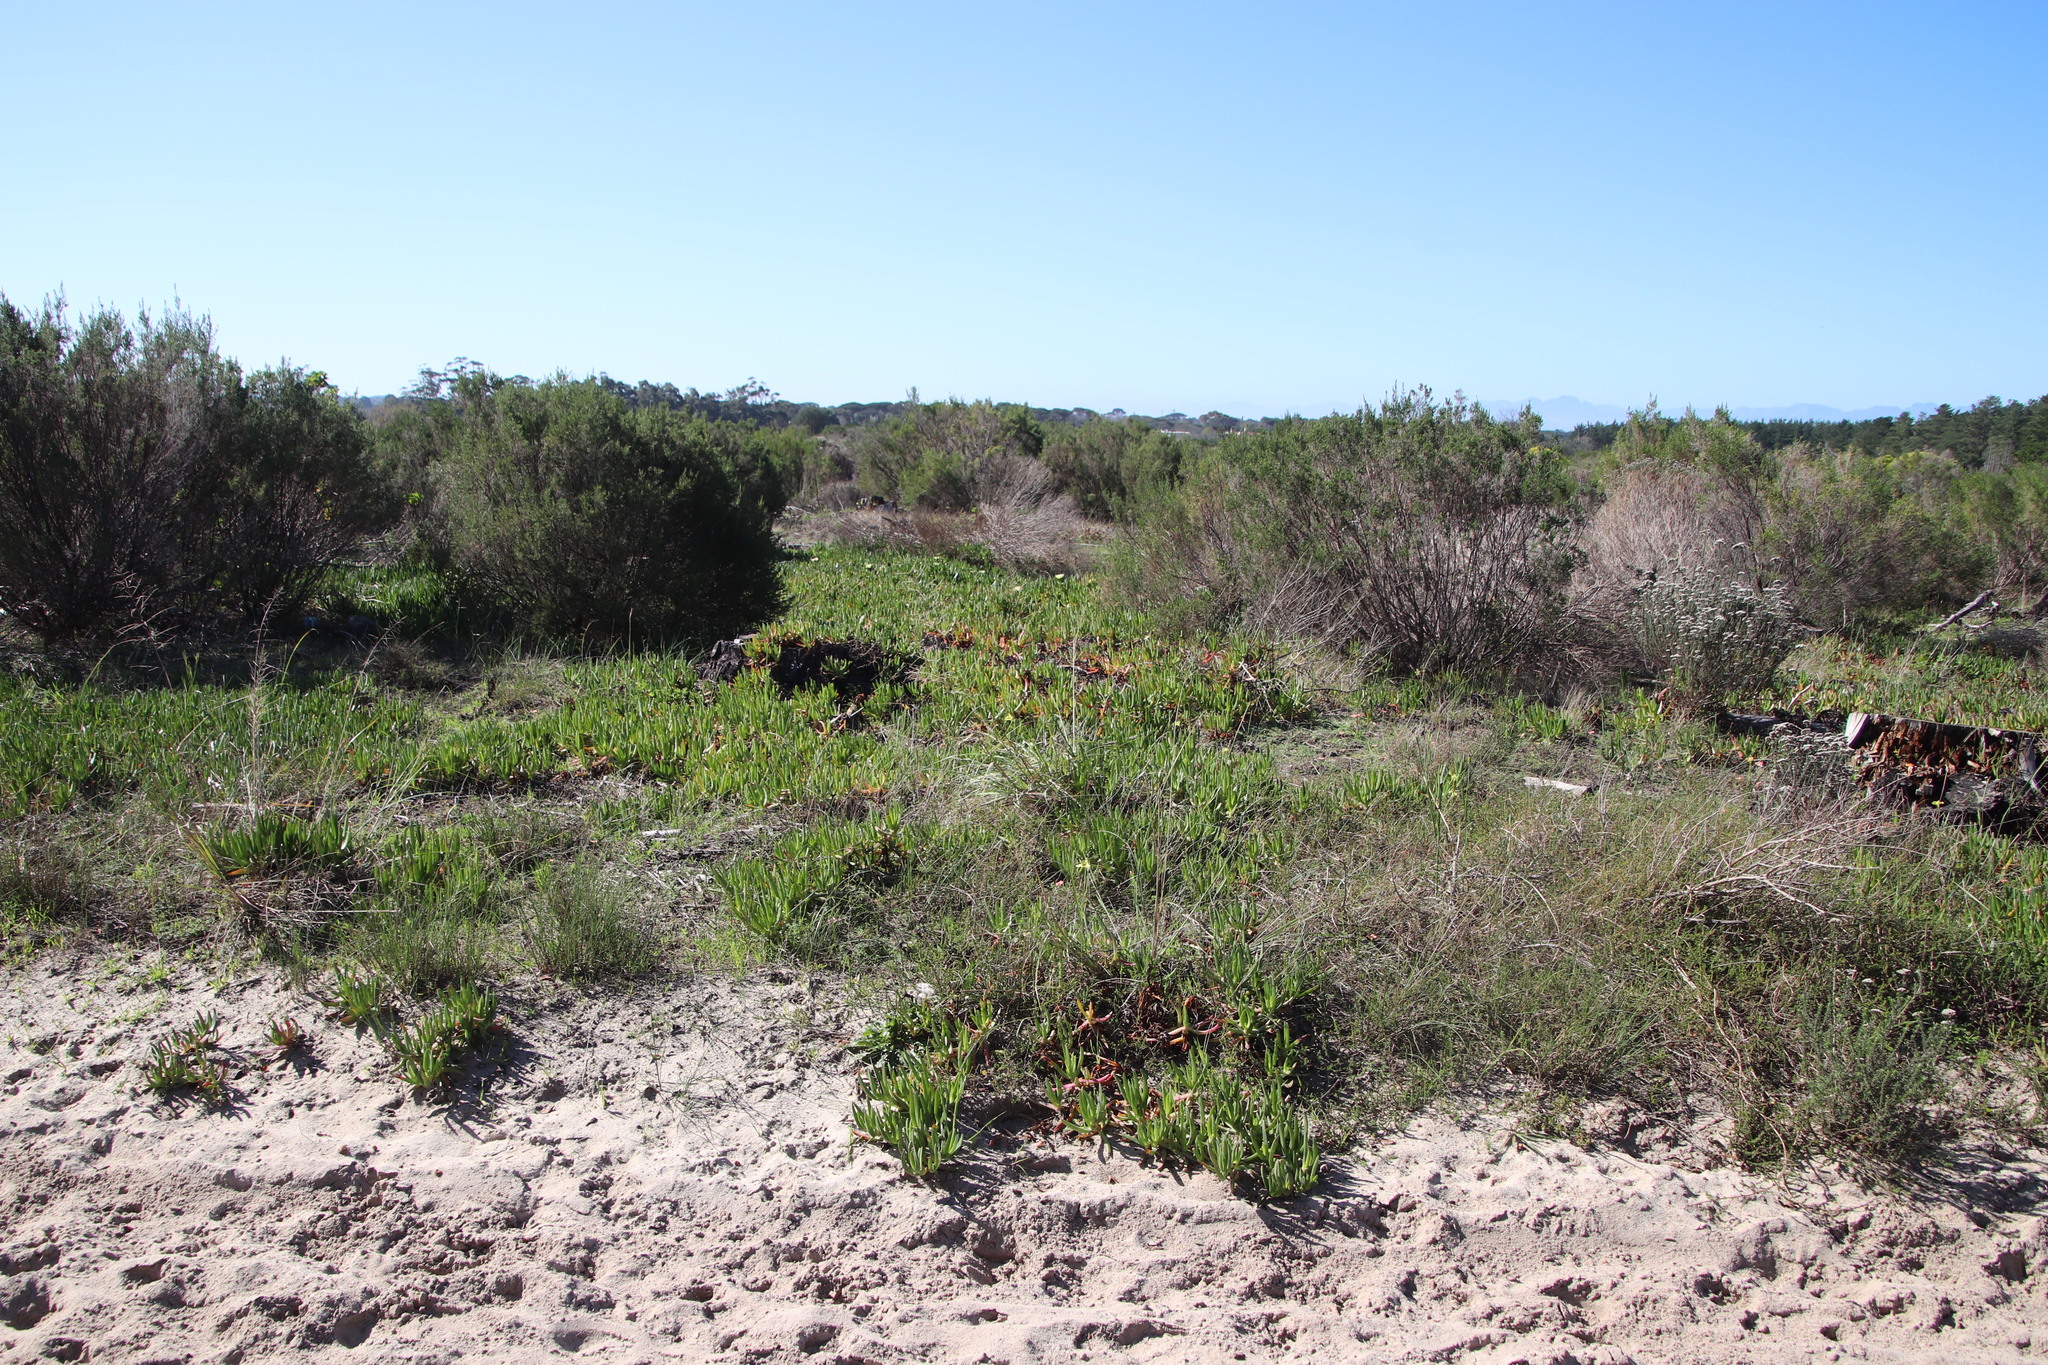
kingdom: Plantae
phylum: Tracheophyta
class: Liliopsida
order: Poales
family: Poaceae
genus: Eragrostis
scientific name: Eragrostis curvula
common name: African love-grass
